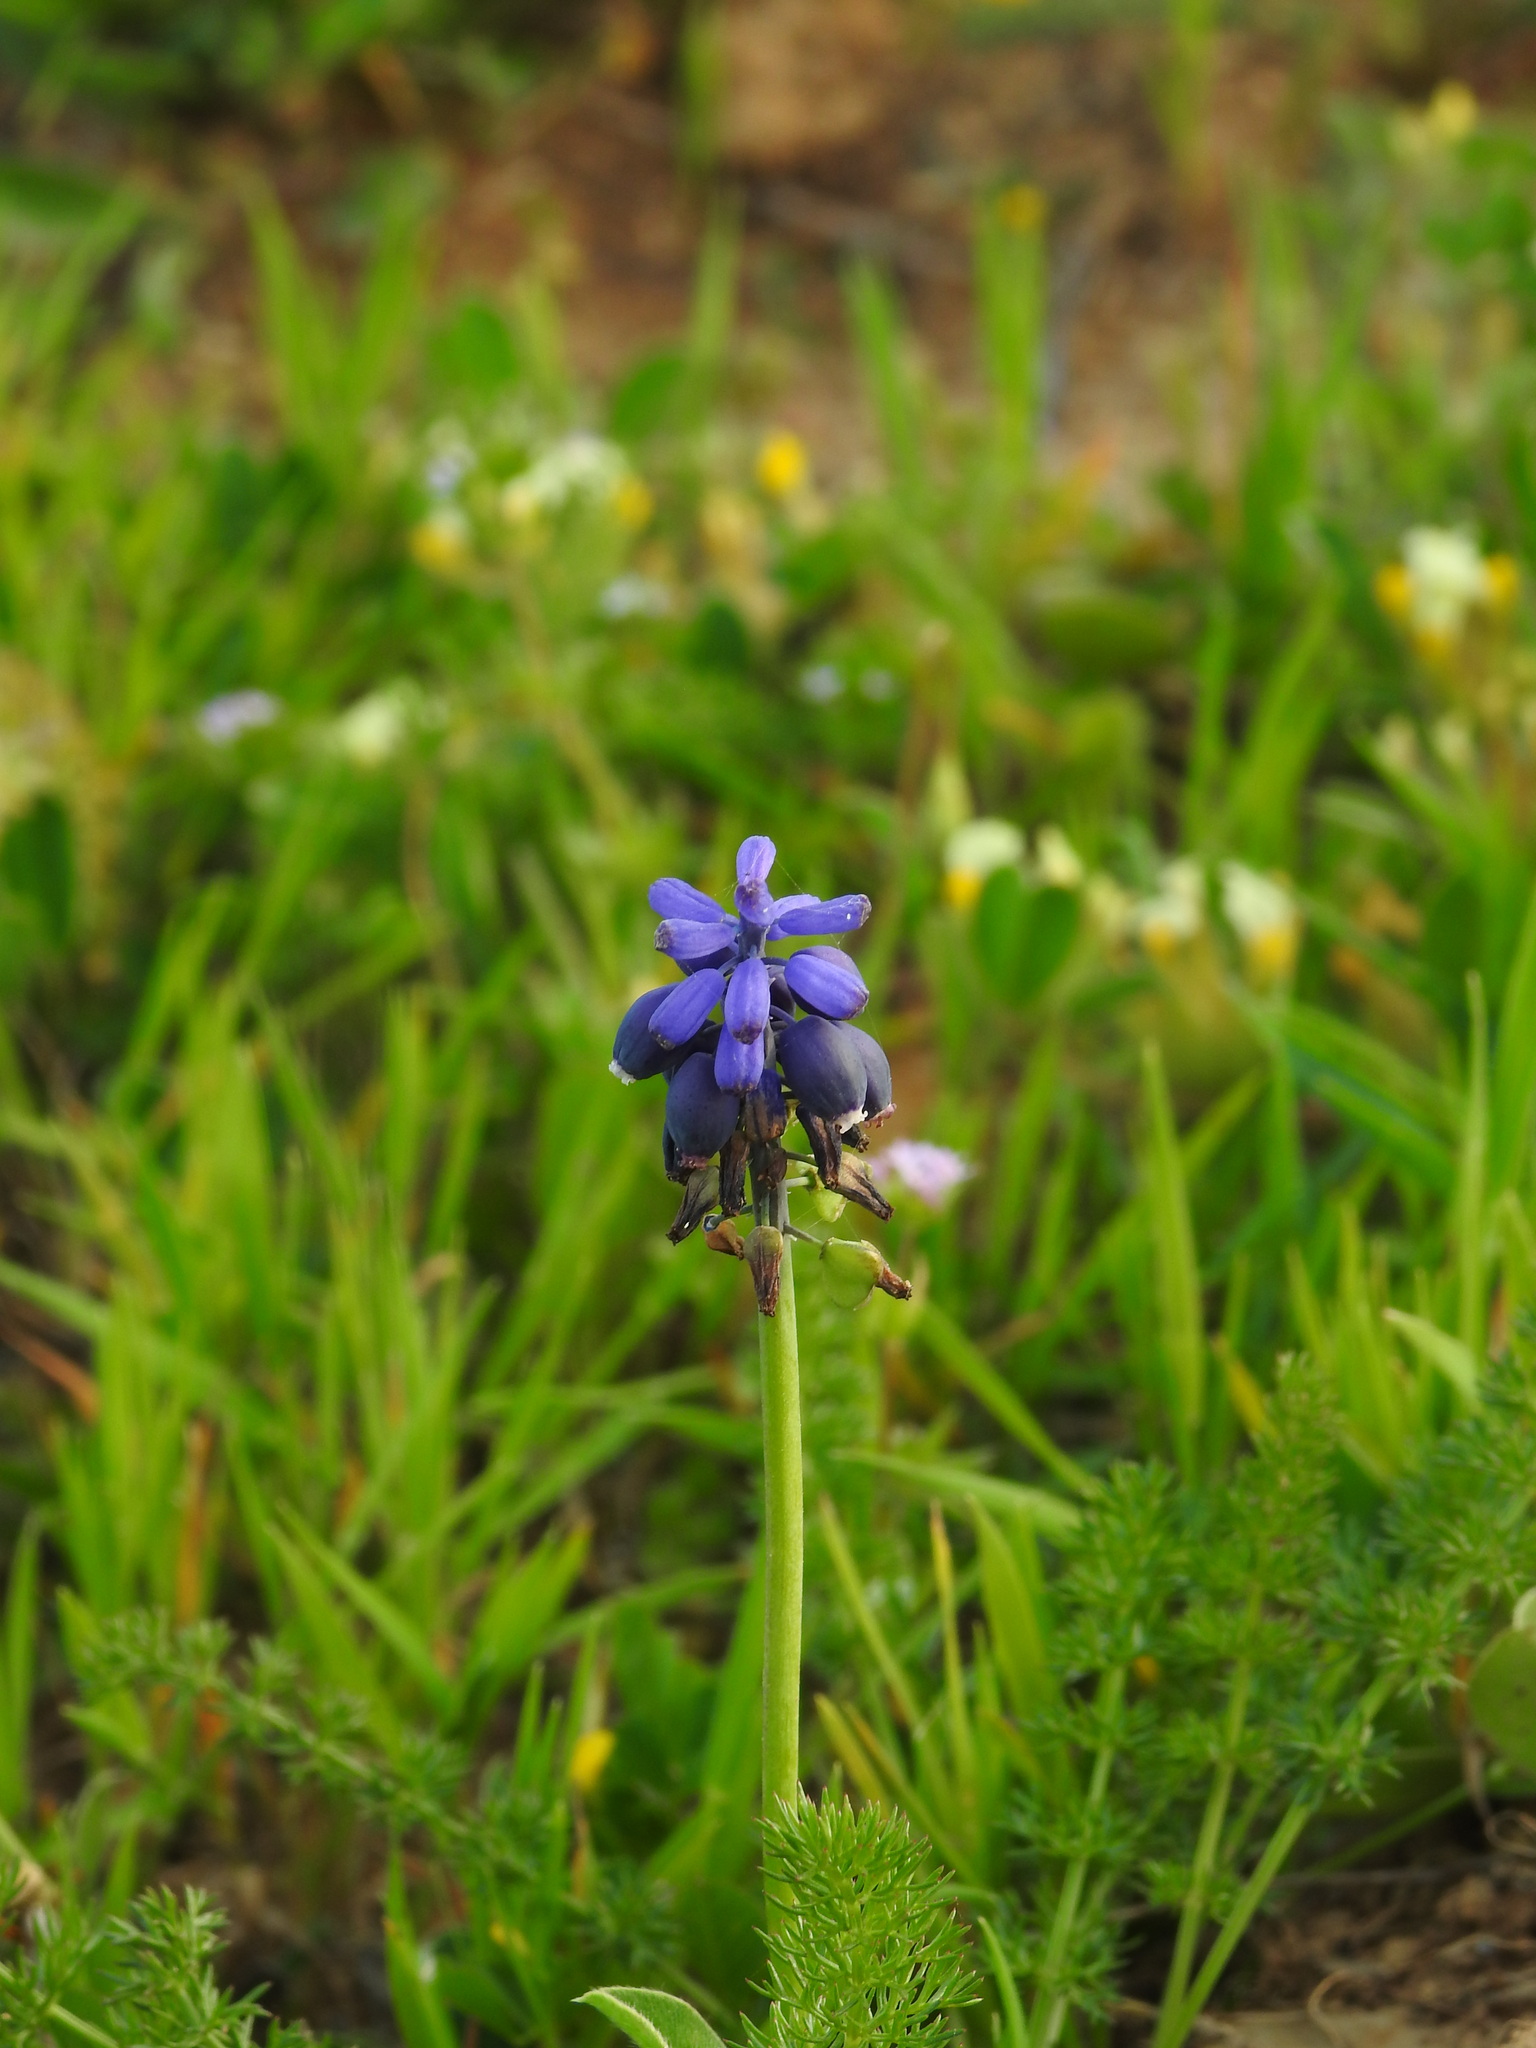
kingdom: Plantae
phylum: Tracheophyta
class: Liliopsida
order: Asparagales
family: Asparagaceae
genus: Muscari
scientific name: Muscari neglectum
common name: Grape-hyacinth
